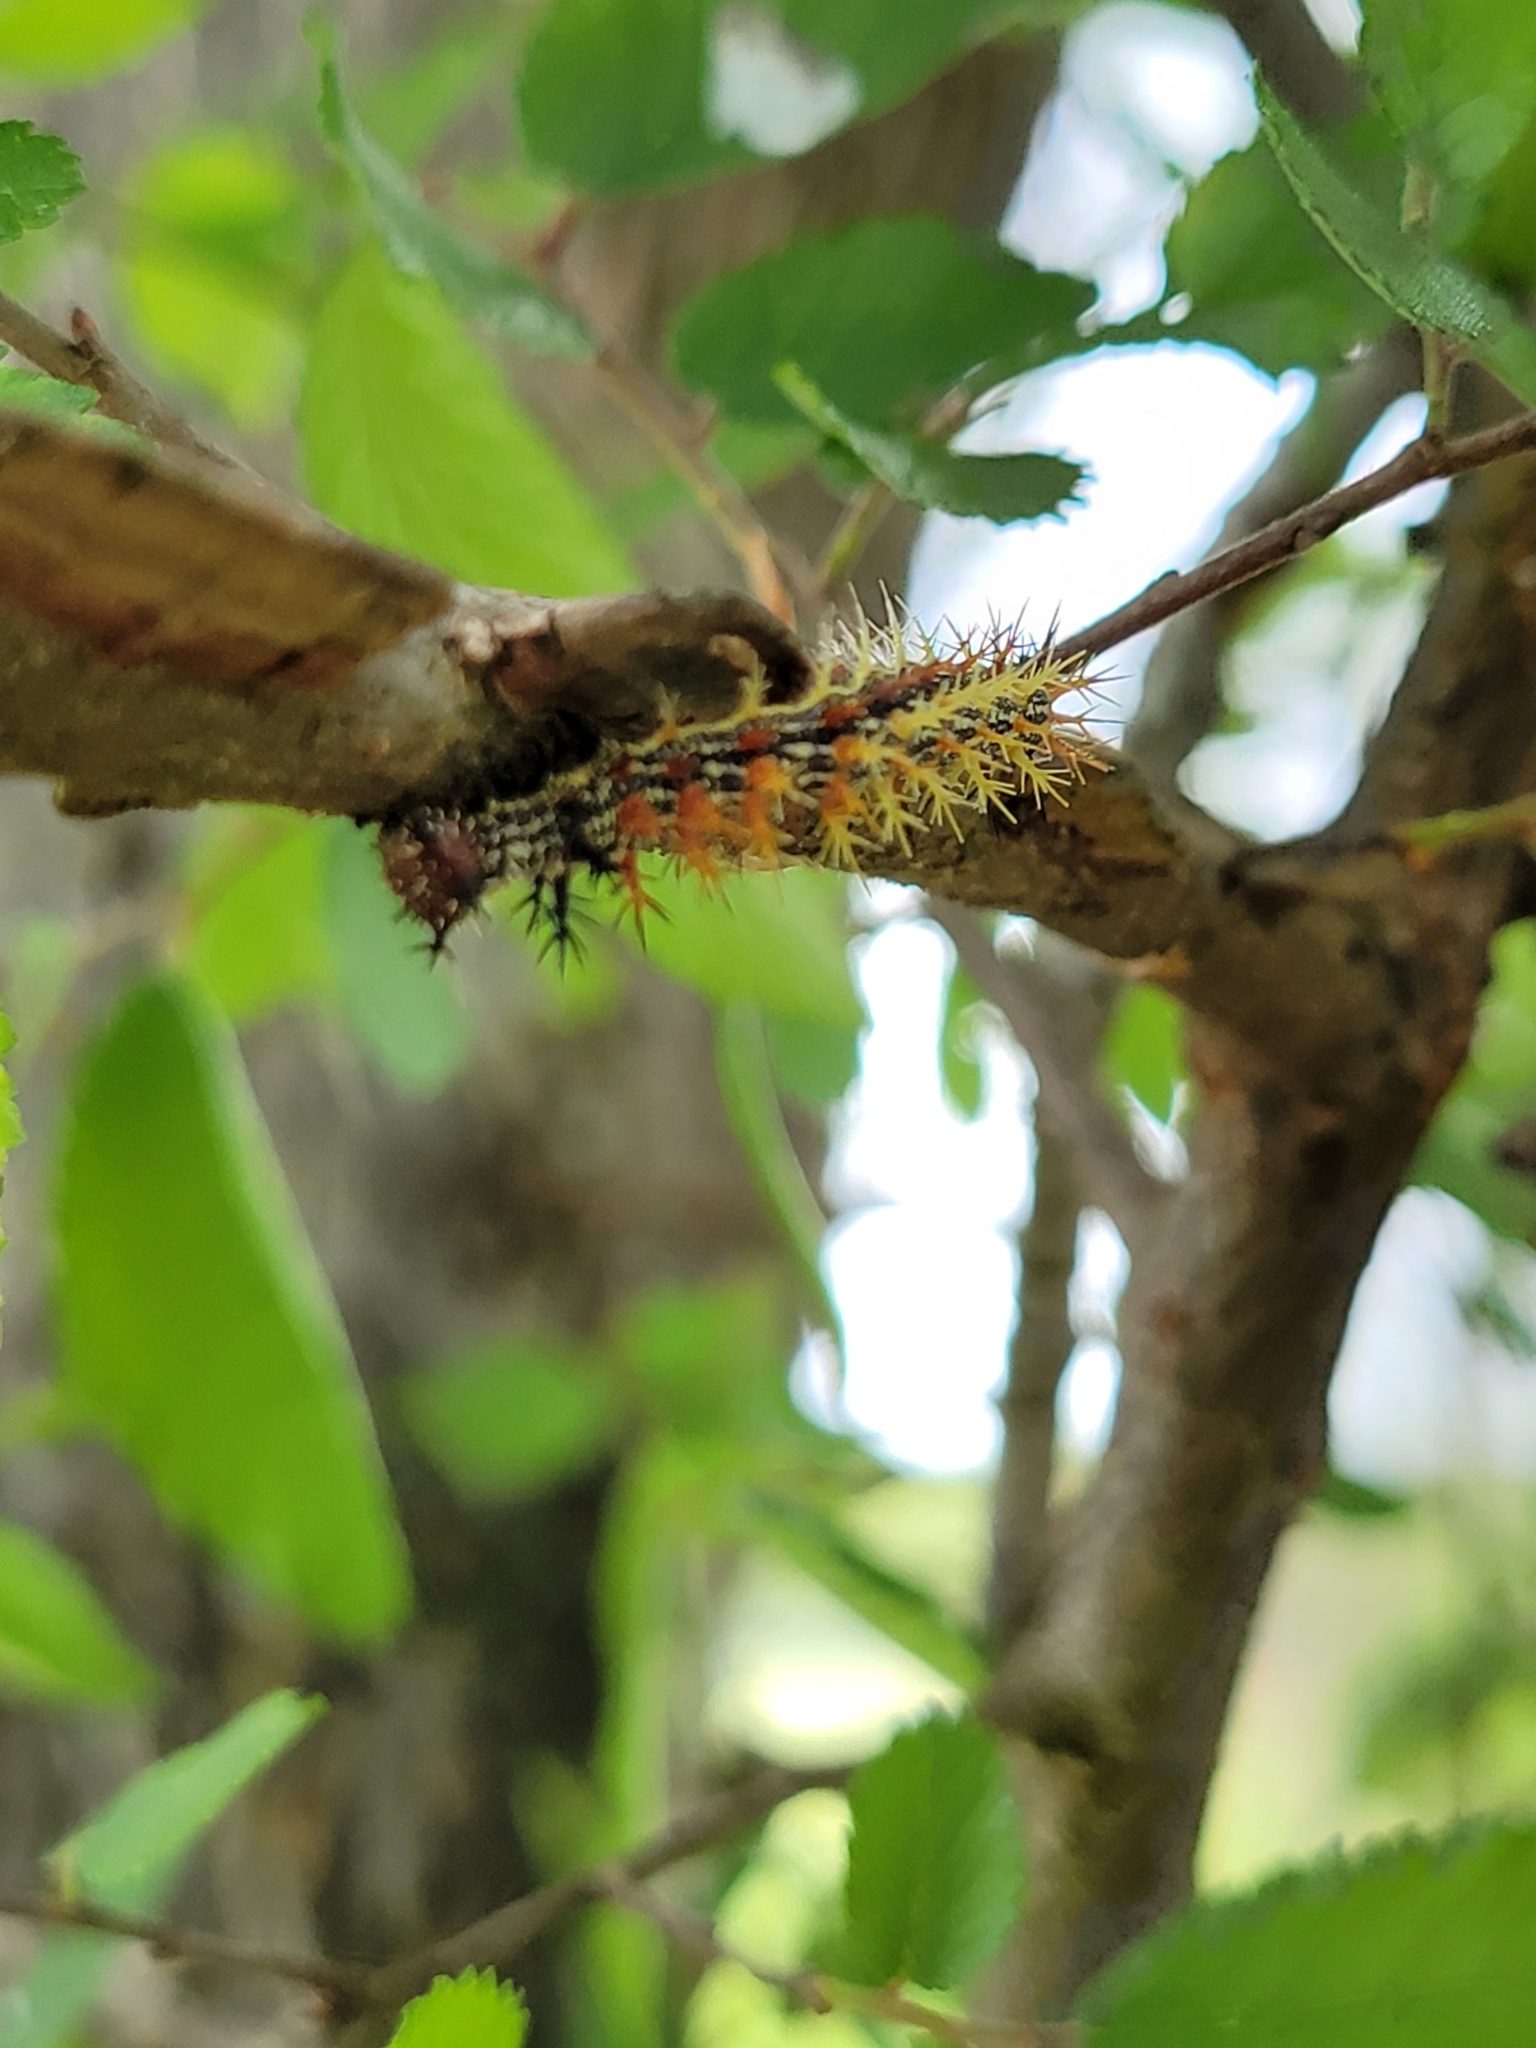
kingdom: Animalia
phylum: Arthropoda
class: Insecta
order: Lepidoptera
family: Nymphalidae
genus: Polygonia
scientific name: Polygonia interrogationis
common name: Question mark
